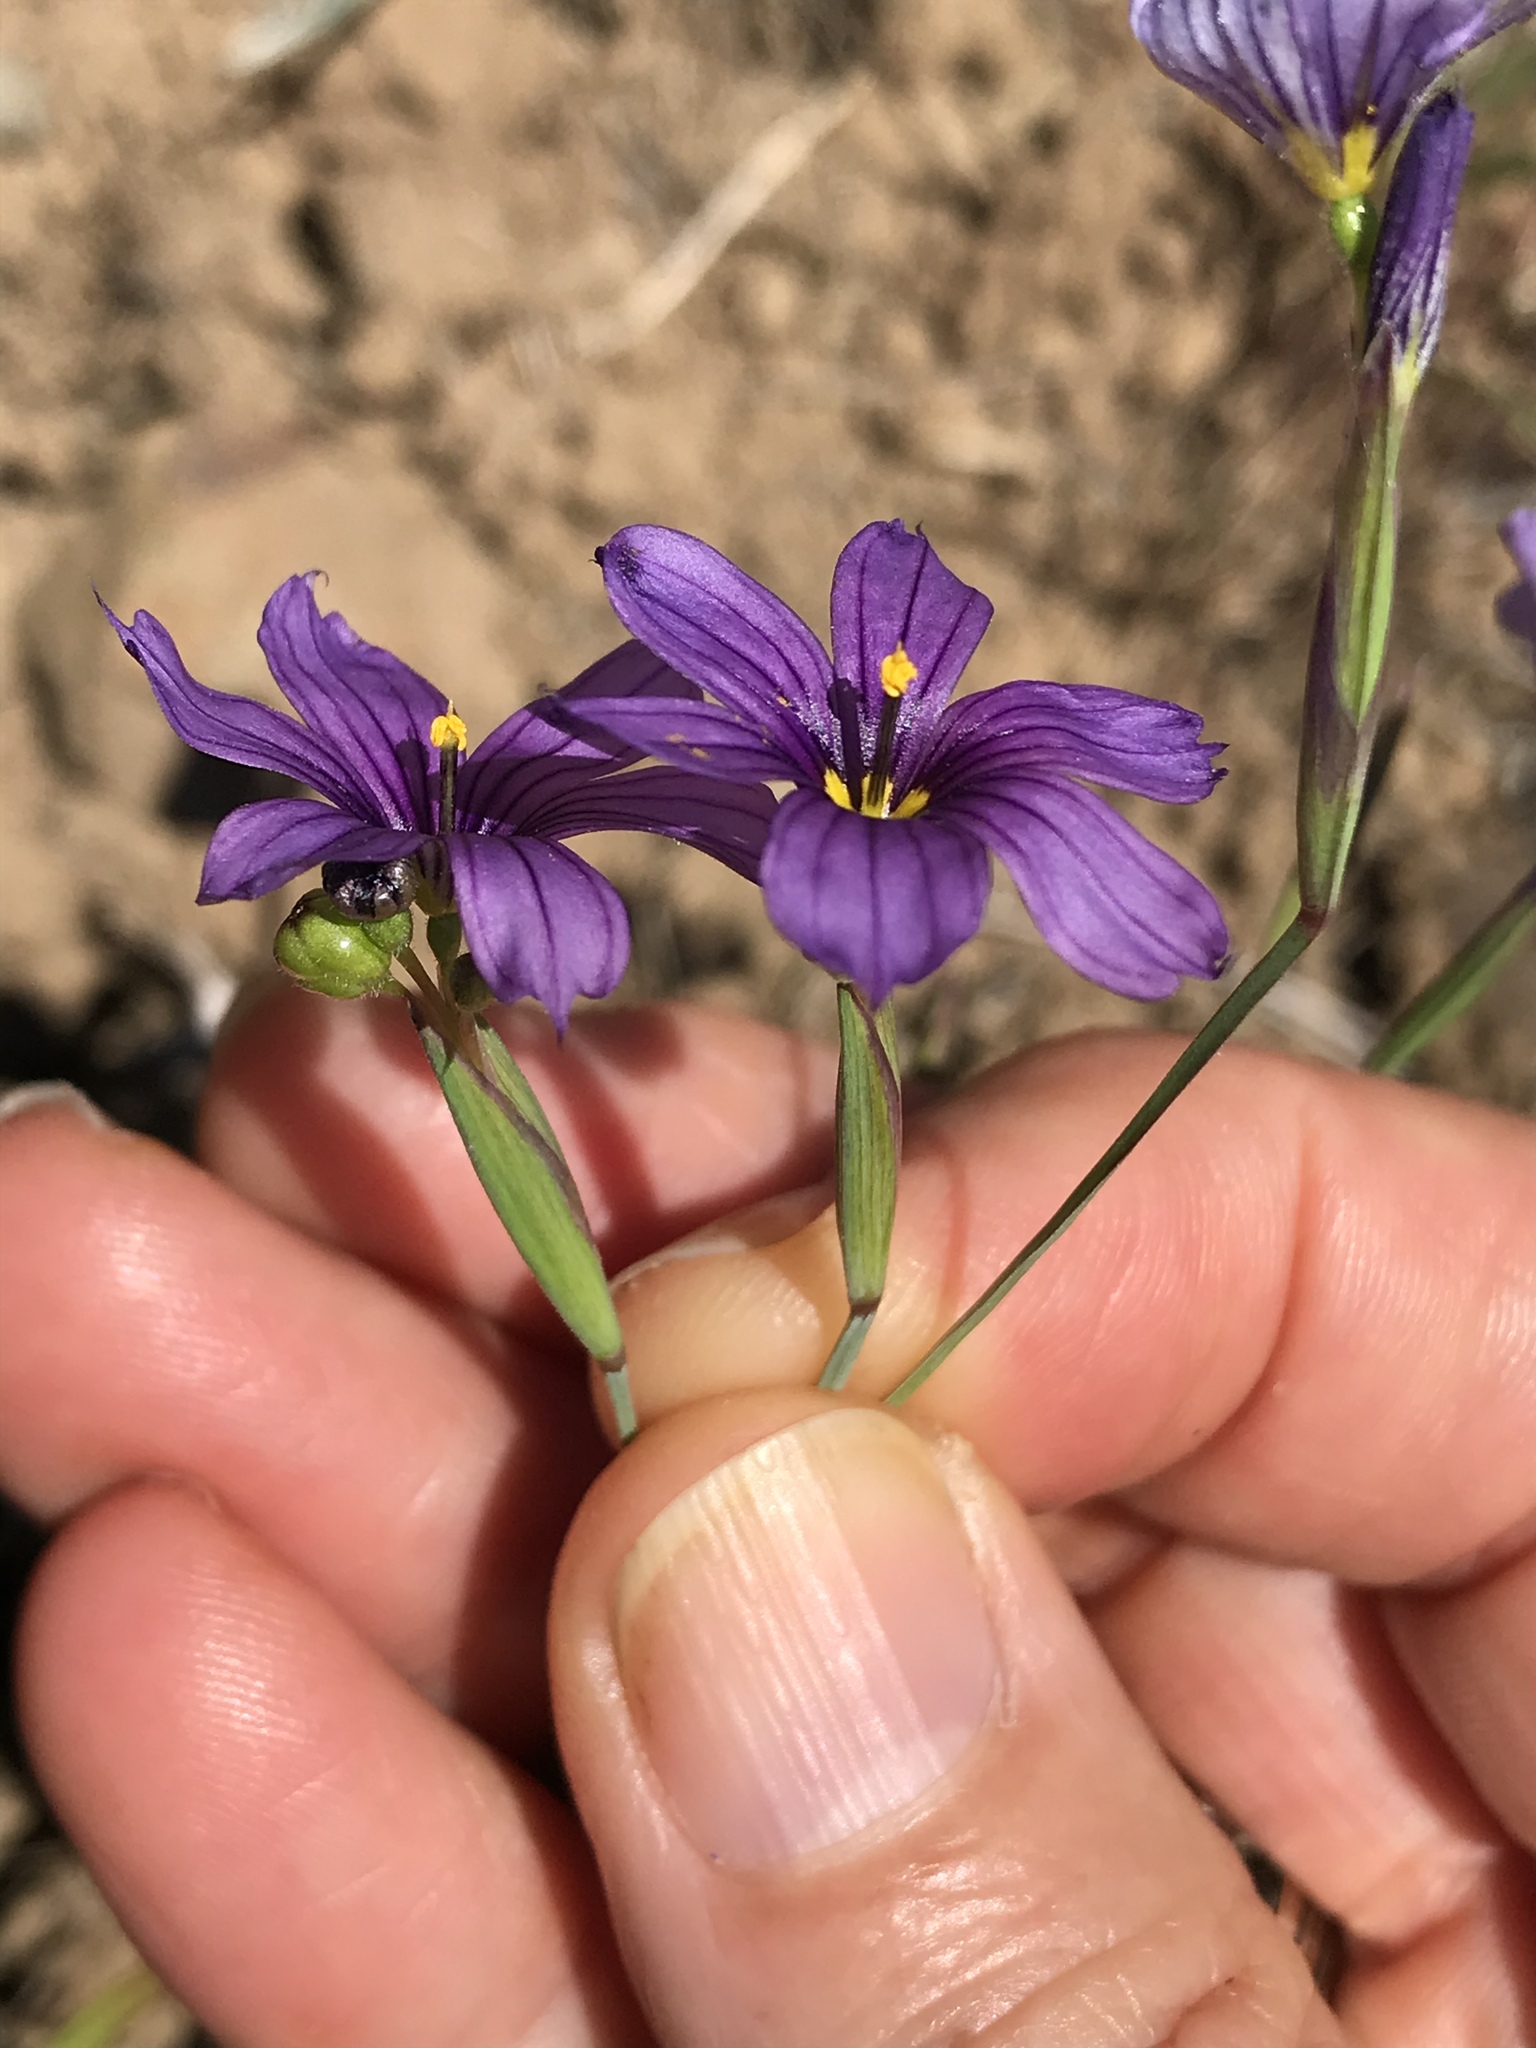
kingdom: Plantae
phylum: Tracheophyta
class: Liliopsida
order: Asparagales
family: Iridaceae
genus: Sisyrinchium
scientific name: Sisyrinchium bellum
